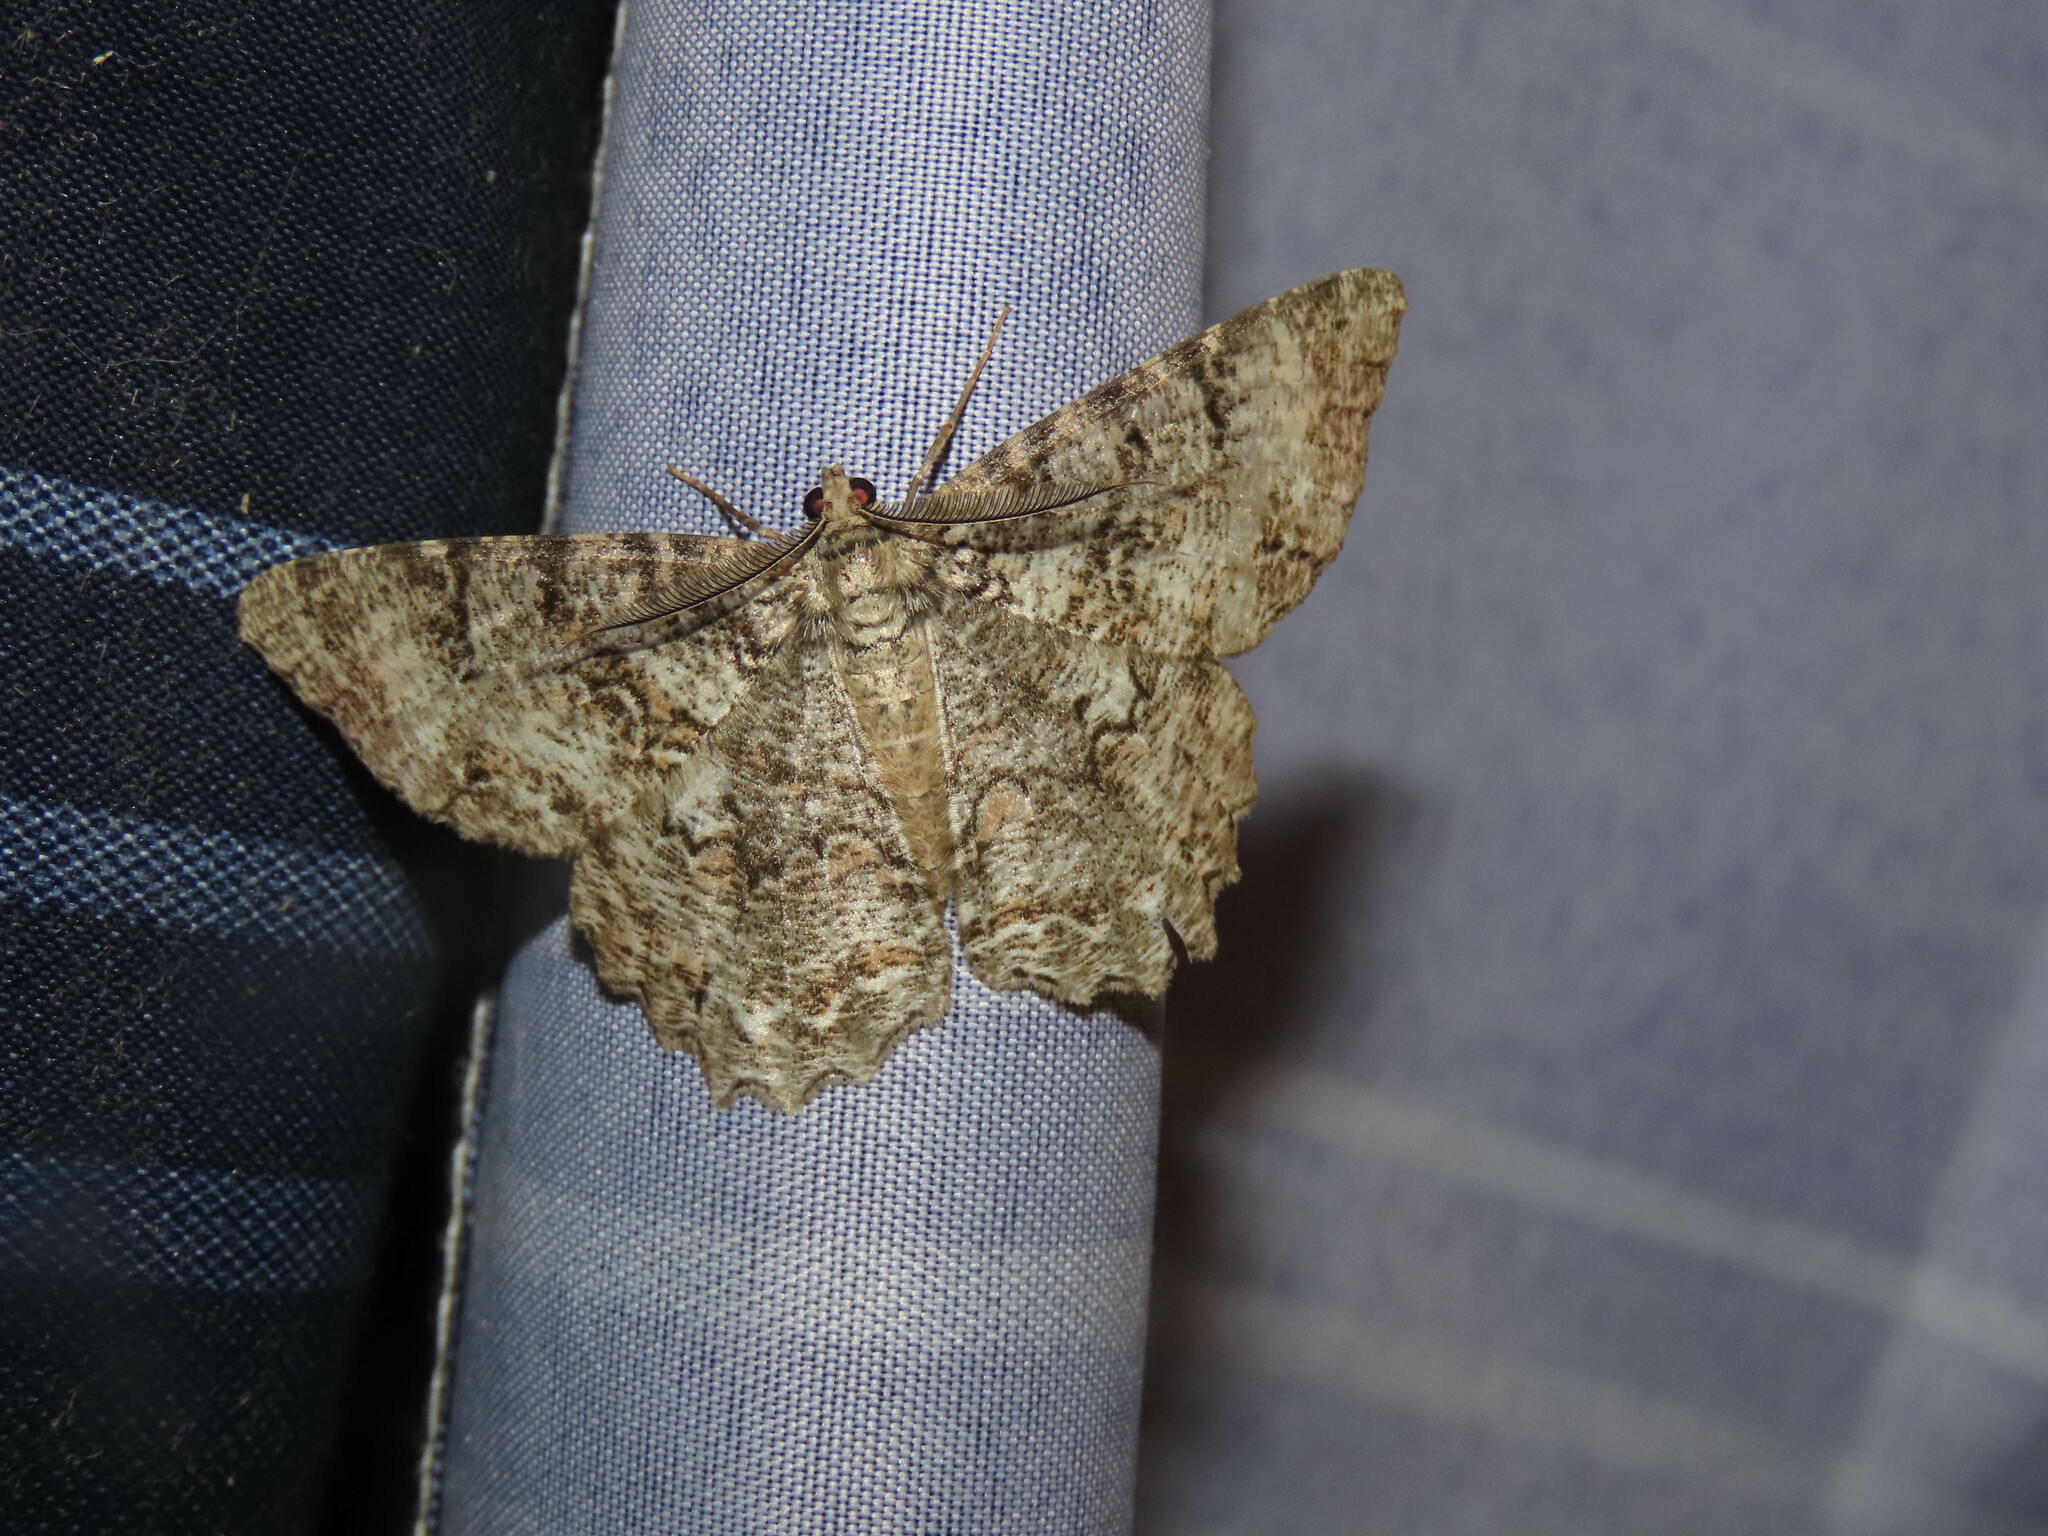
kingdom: Animalia
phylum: Arthropoda
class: Insecta
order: Lepidoptera
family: Geometridae
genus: Epimecis
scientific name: Epimecis hortaria
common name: Tulip-tree beauty
